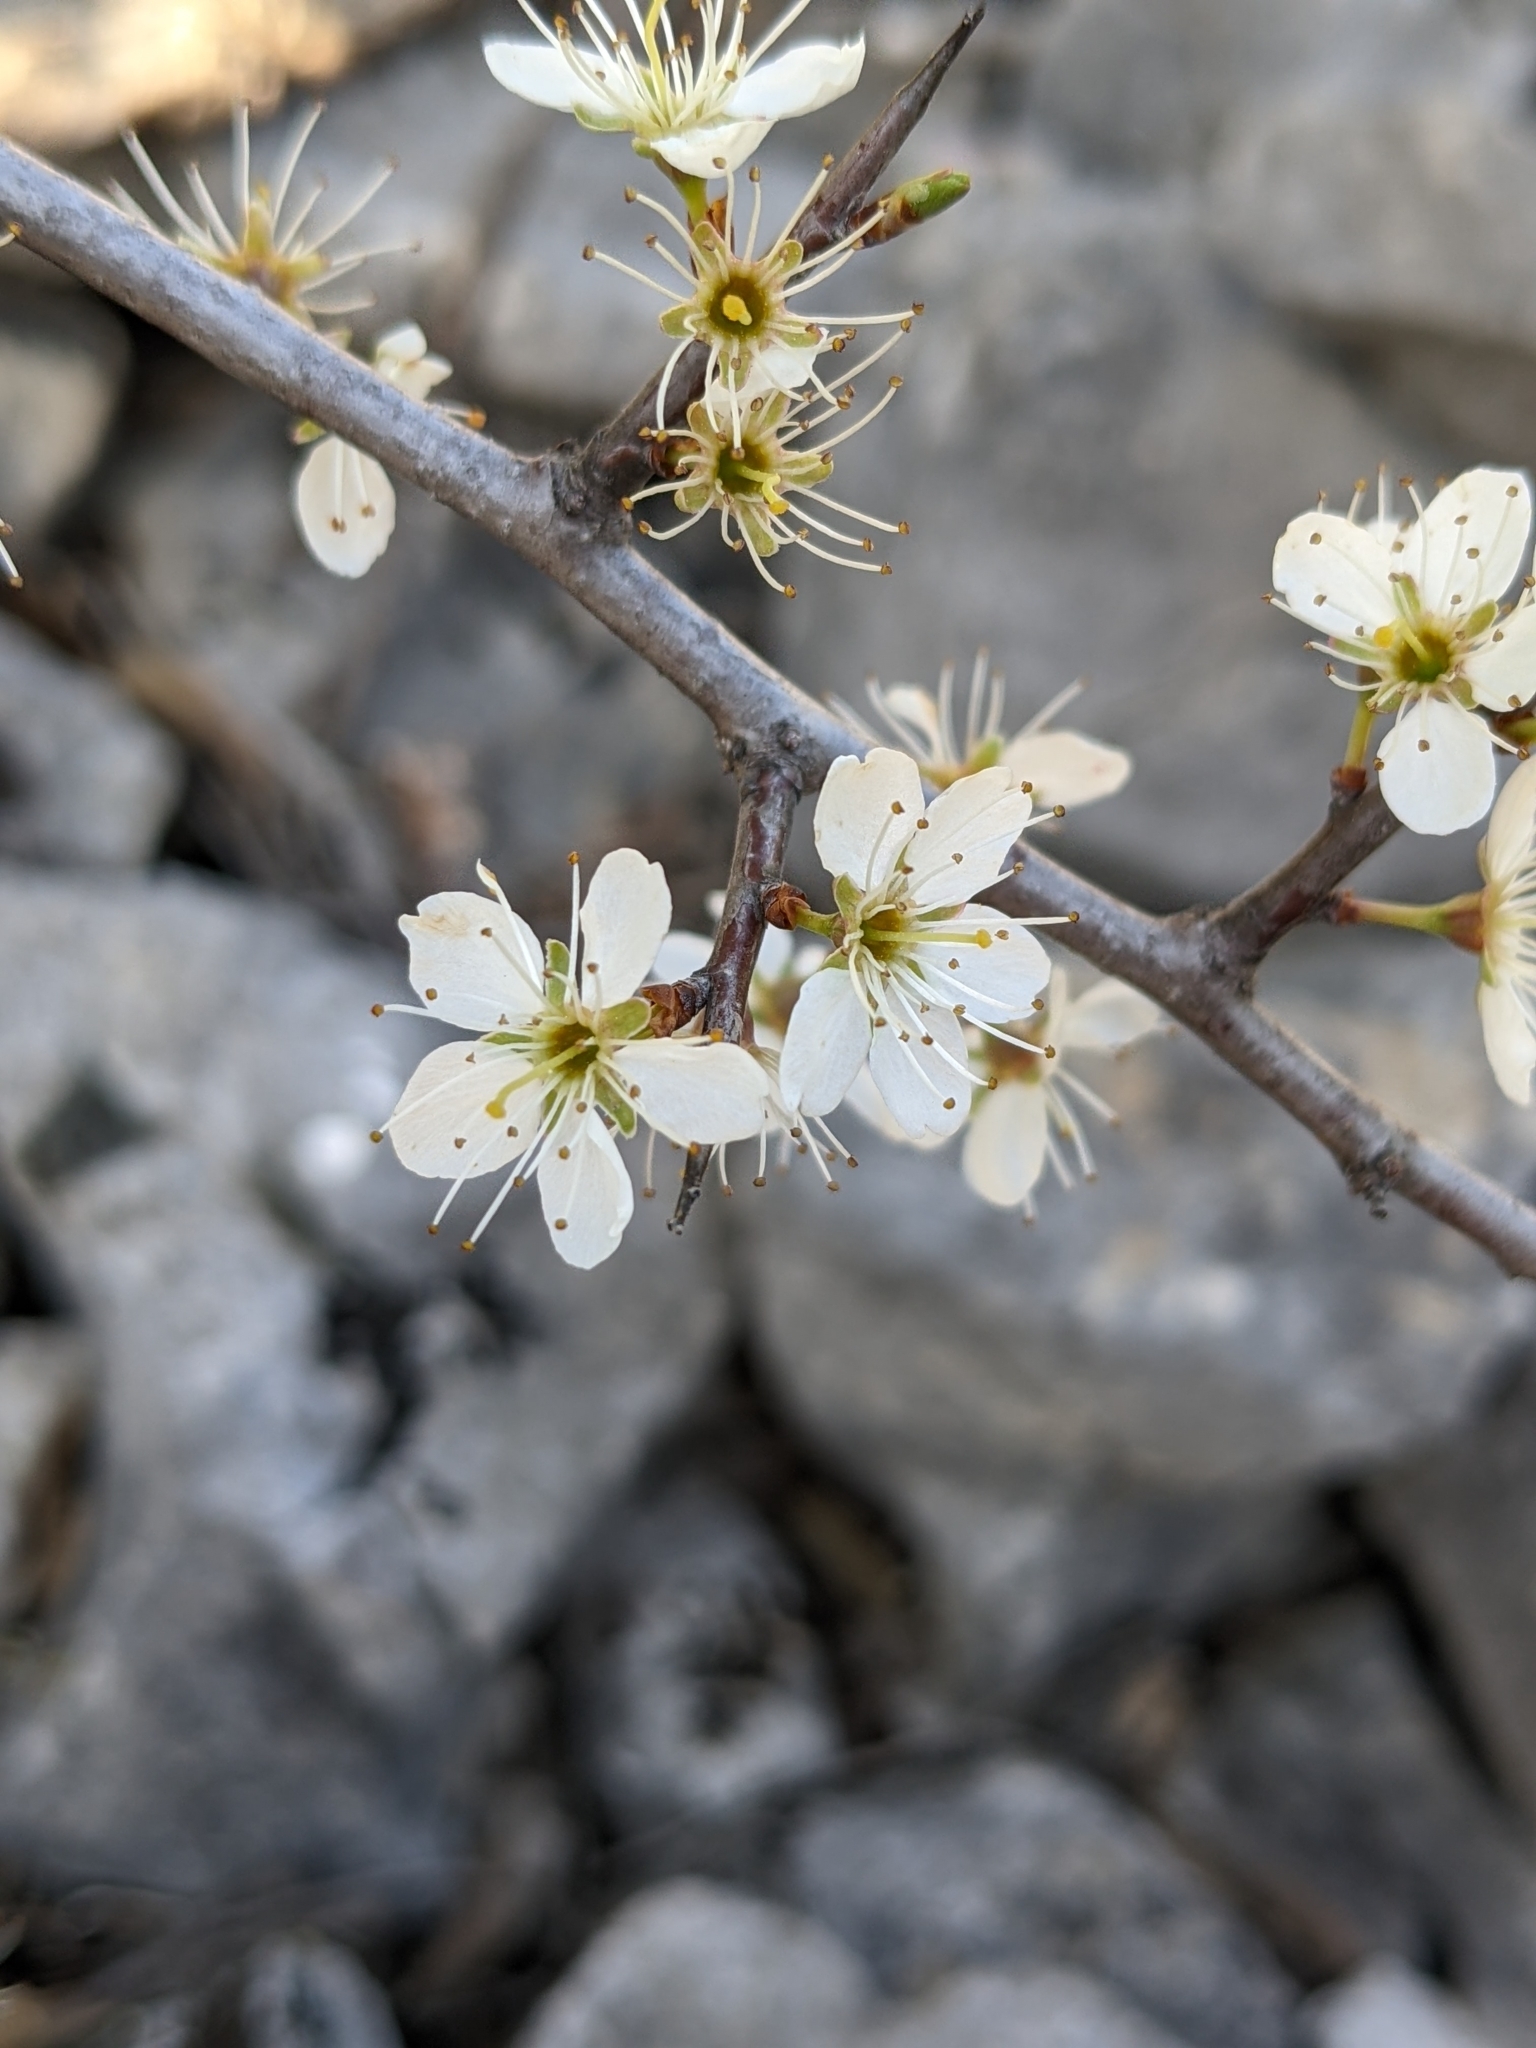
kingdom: Plantae
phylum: Tracheophyta
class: Magnoliopsida
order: Rosales
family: Rosaceae
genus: Prunus
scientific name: Prunus spinosa
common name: Blackthorn
